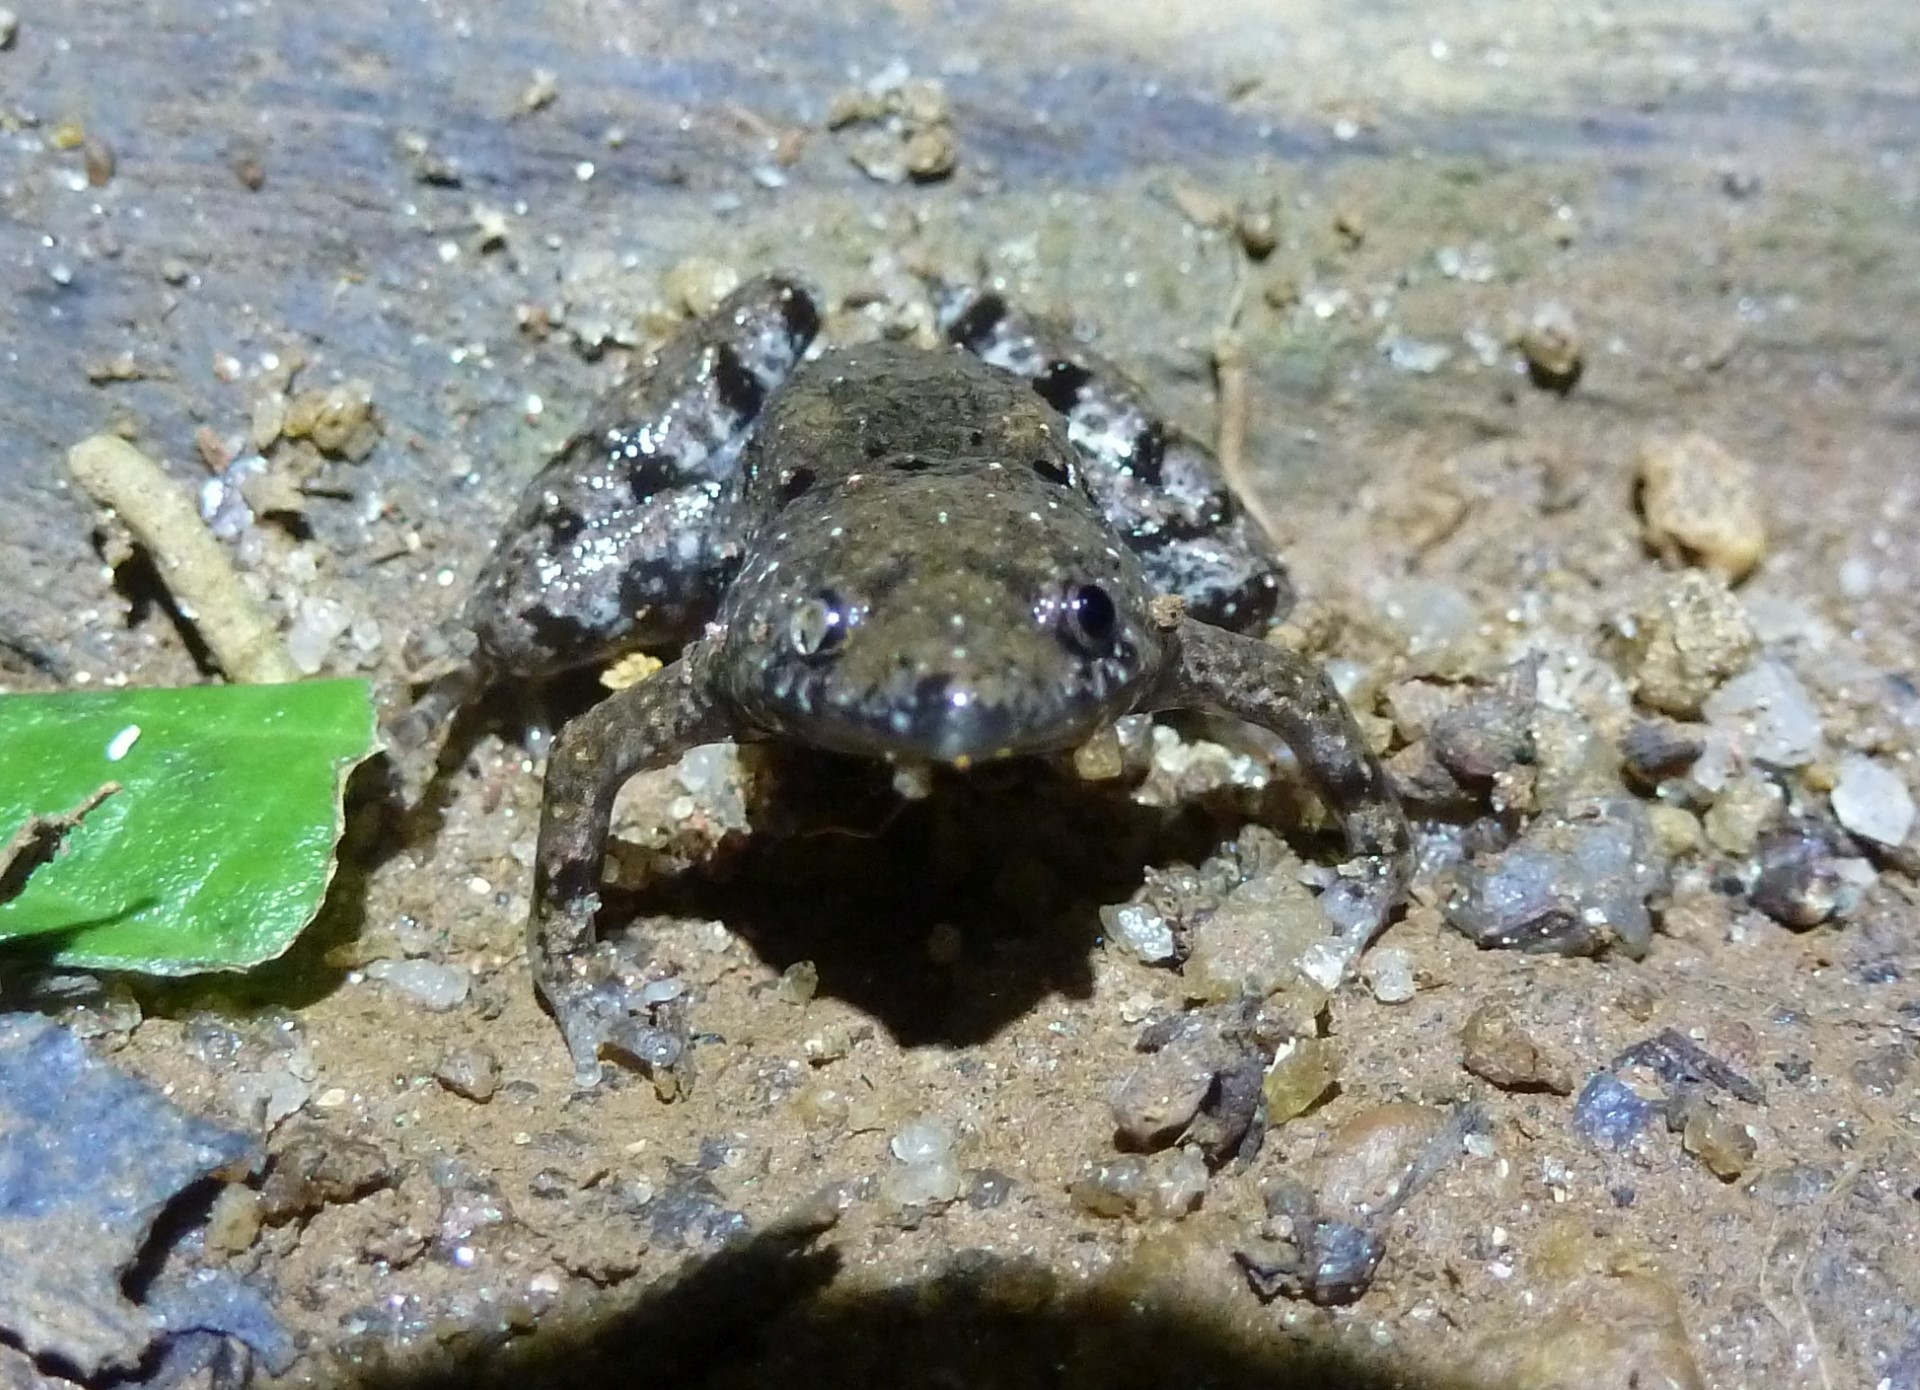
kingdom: Animalia
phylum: Chordata
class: Amphibia
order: Anura
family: Microhylidae
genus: Paradoxophyla
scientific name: Paradoxophyla palmata
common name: Web-foot frog
